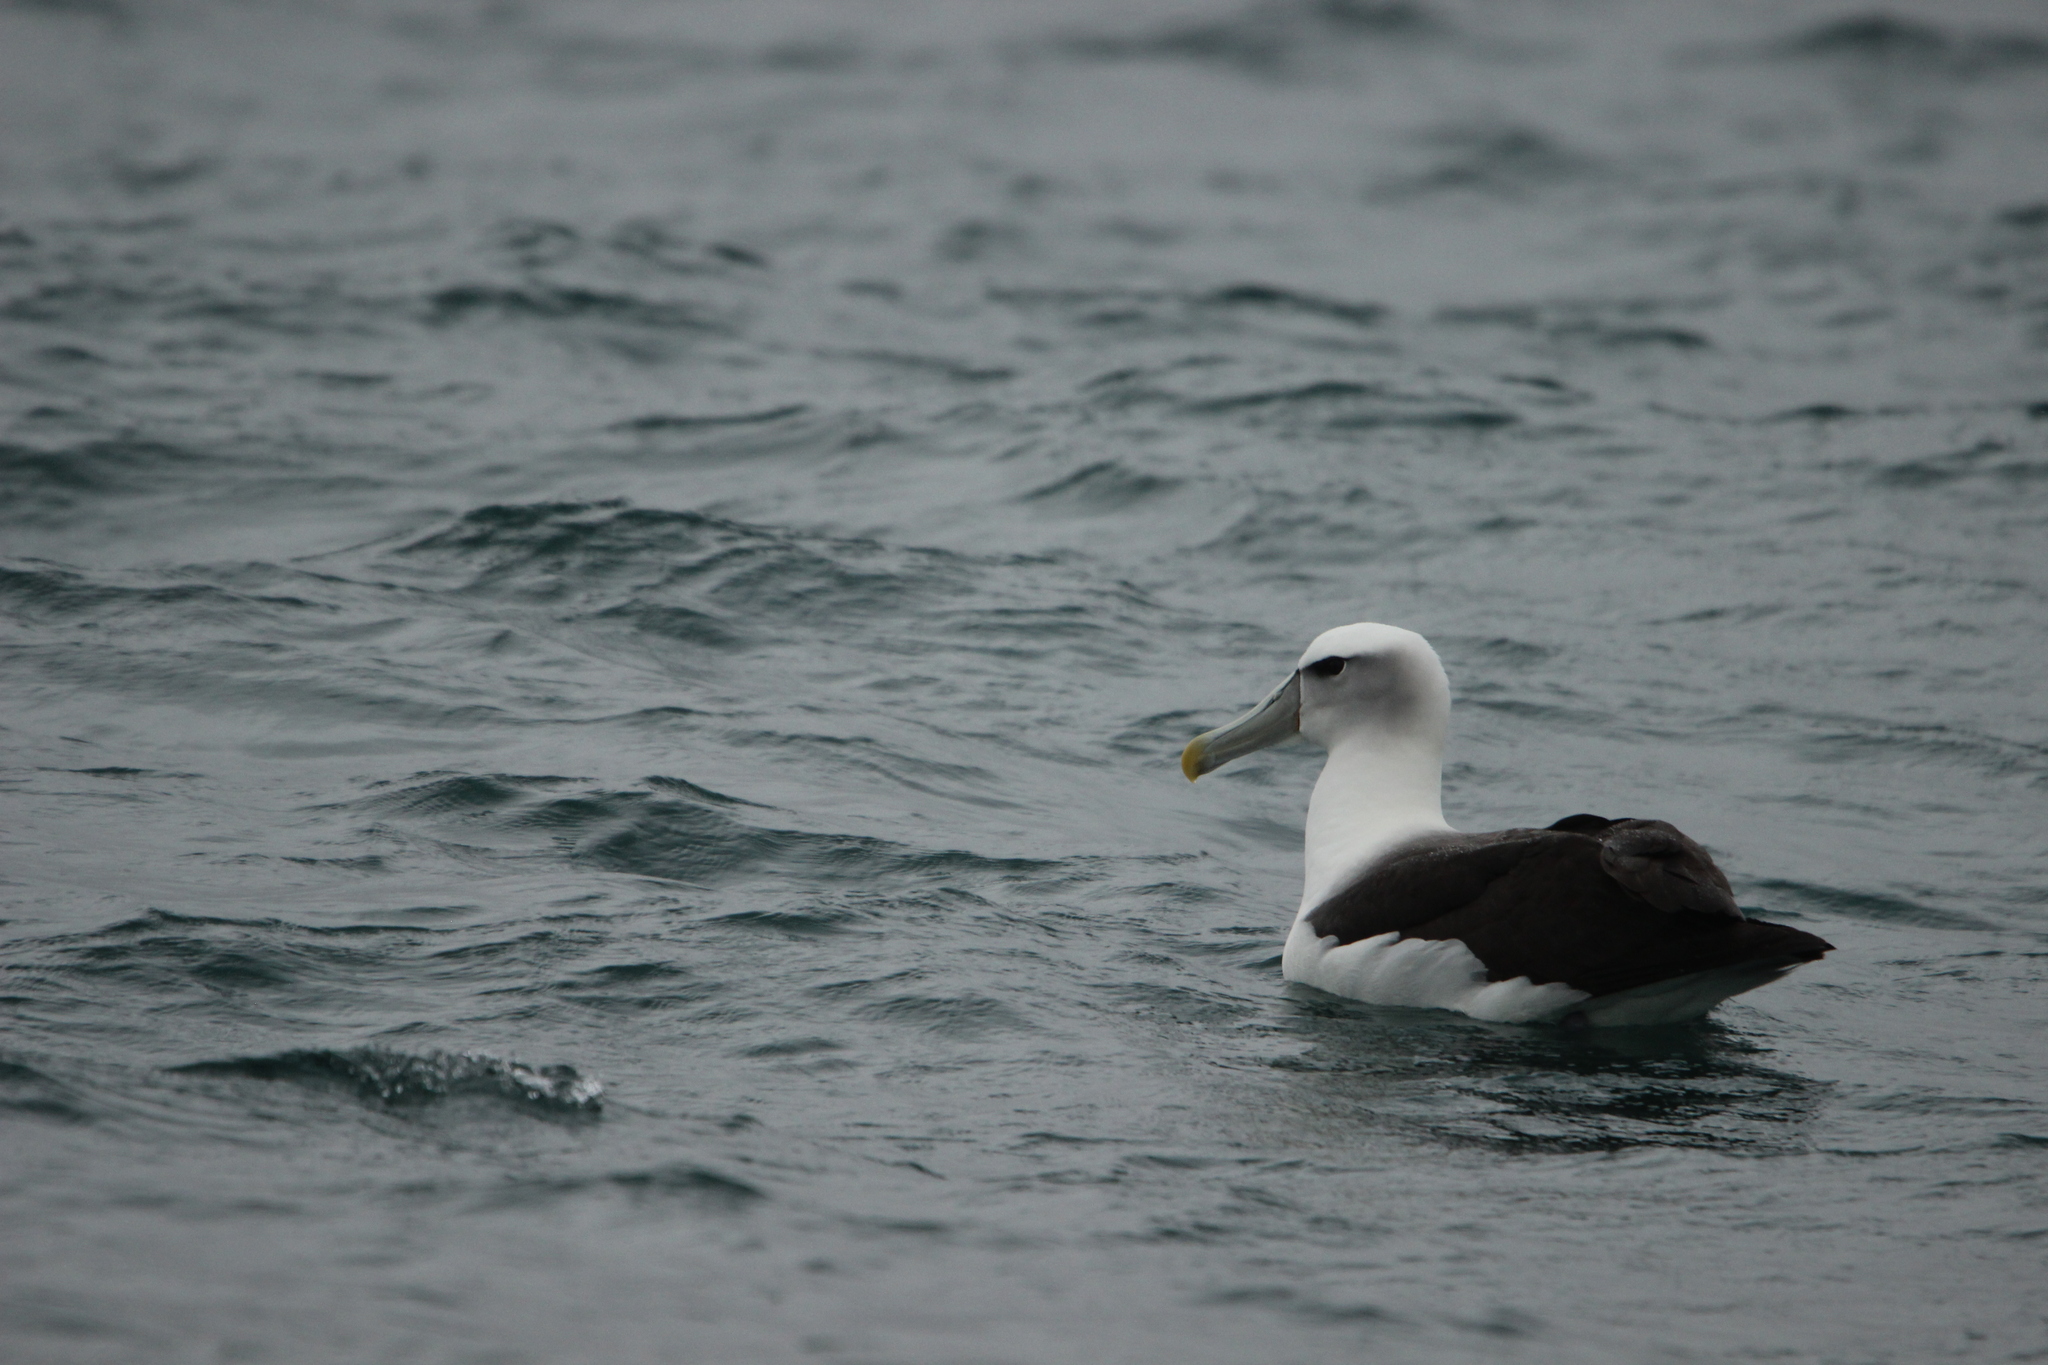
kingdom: Animalia
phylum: Chordata
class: Aves
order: Procellariiformes
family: Diomedeidae
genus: Thalassarche
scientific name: Thalassarche cauta
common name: Shy albatross
